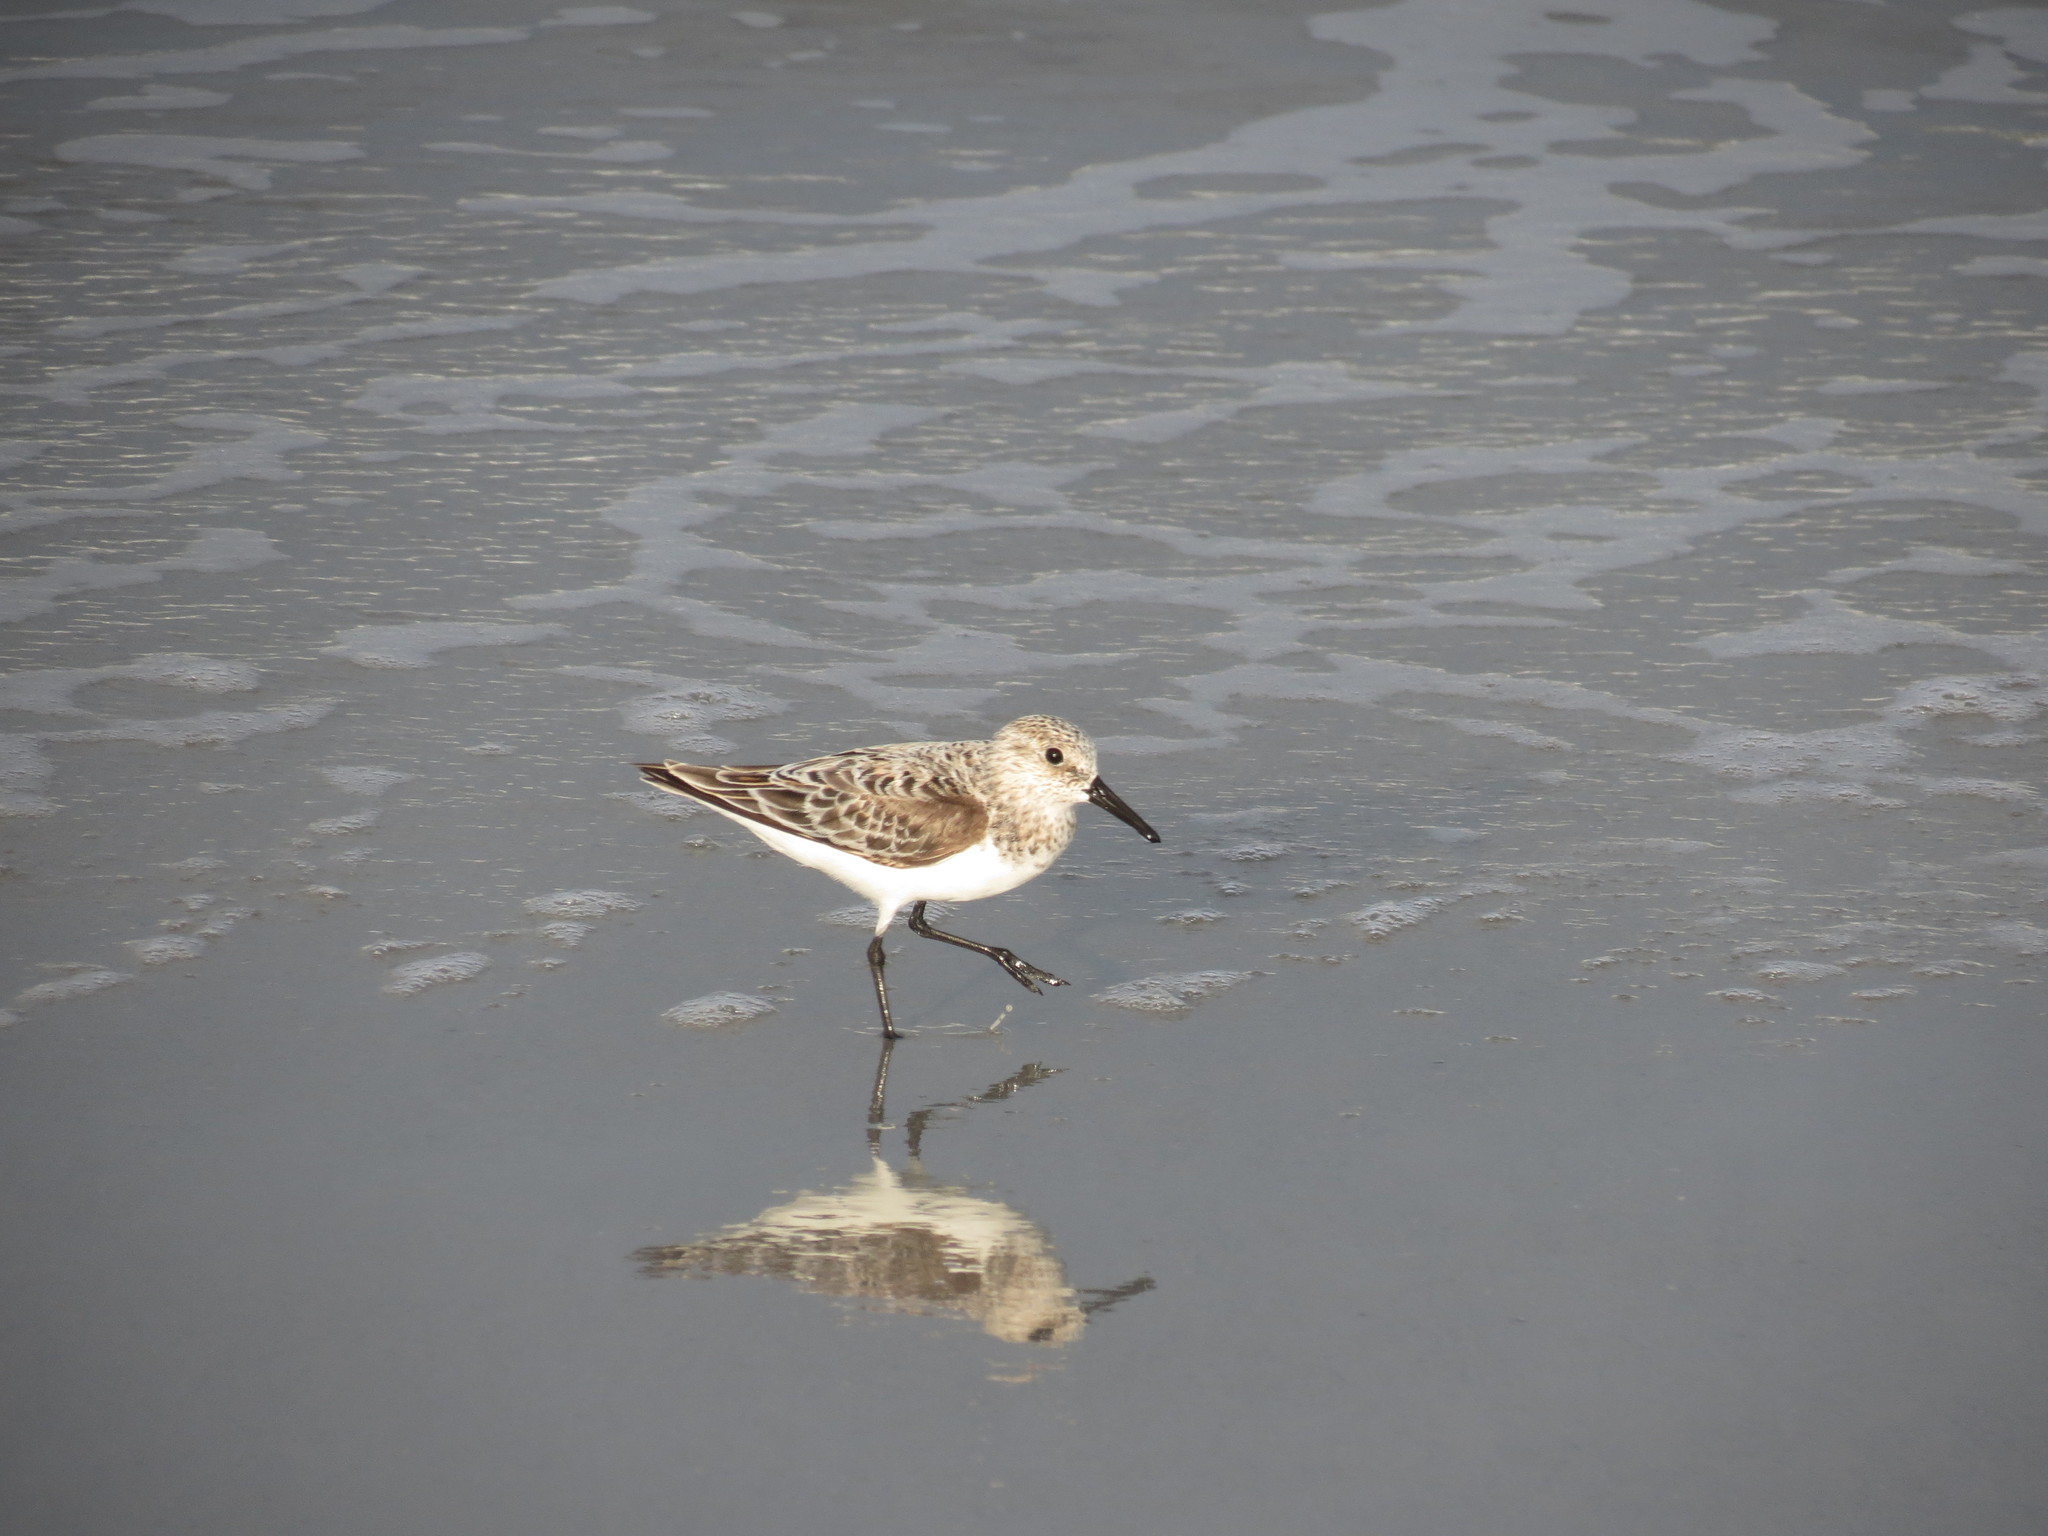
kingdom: Animalia
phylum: Chordata
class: Aves
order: Charadriiformes
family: Scolopacidae
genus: Calidris
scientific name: Calidris alba
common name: Sanderling
